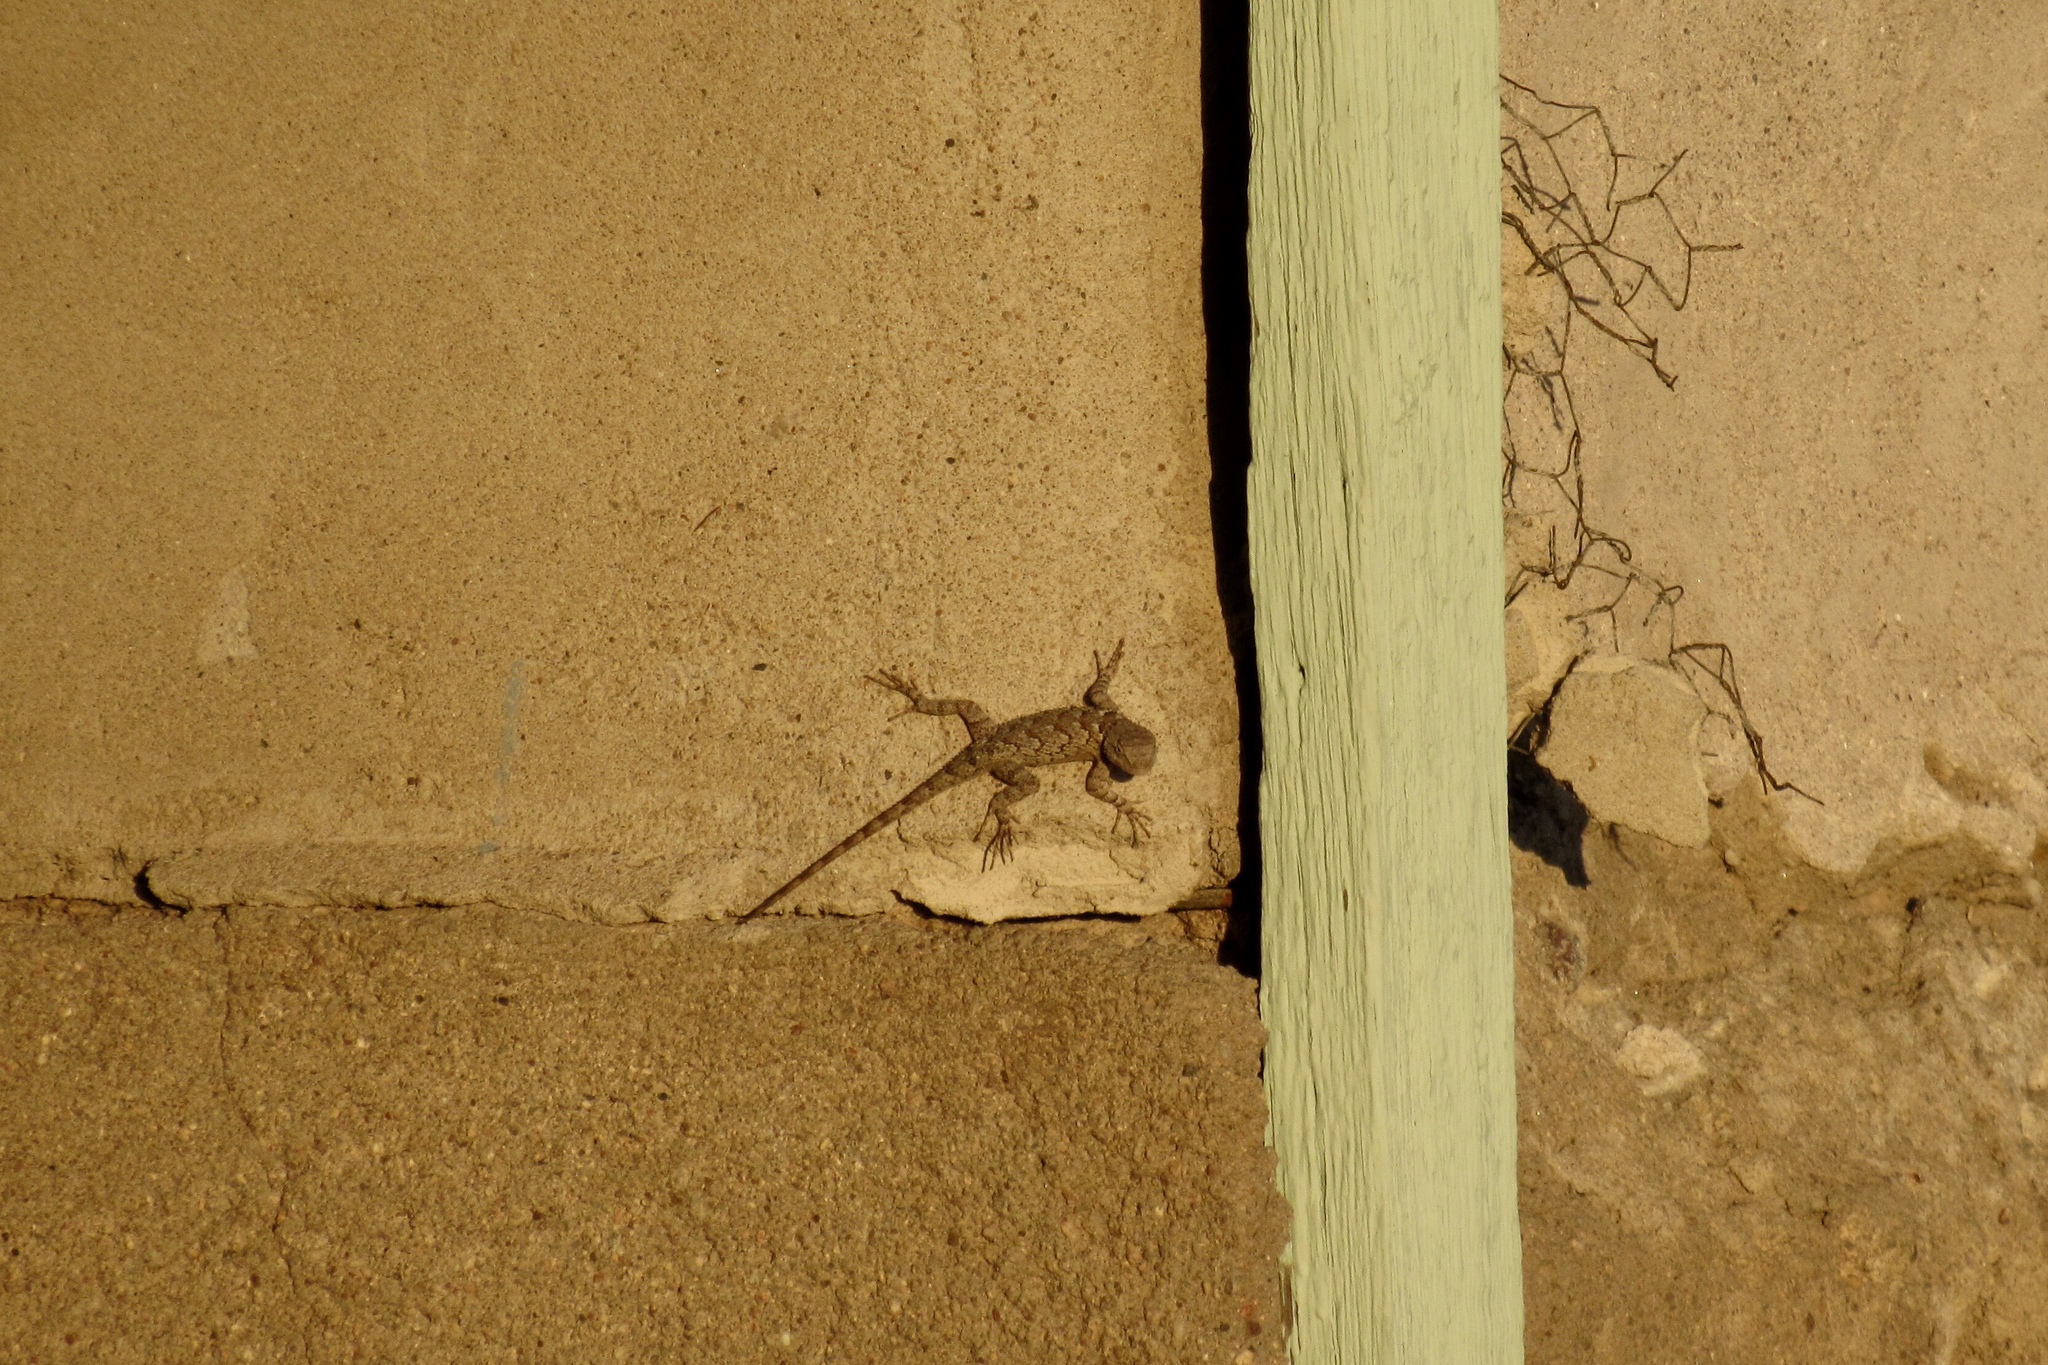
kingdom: Animalia
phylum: Chordata
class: Squamata
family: Phrynosomatidae
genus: Sceloporus
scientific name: Sceloporus clarkii
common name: Clark's spiny lizard
